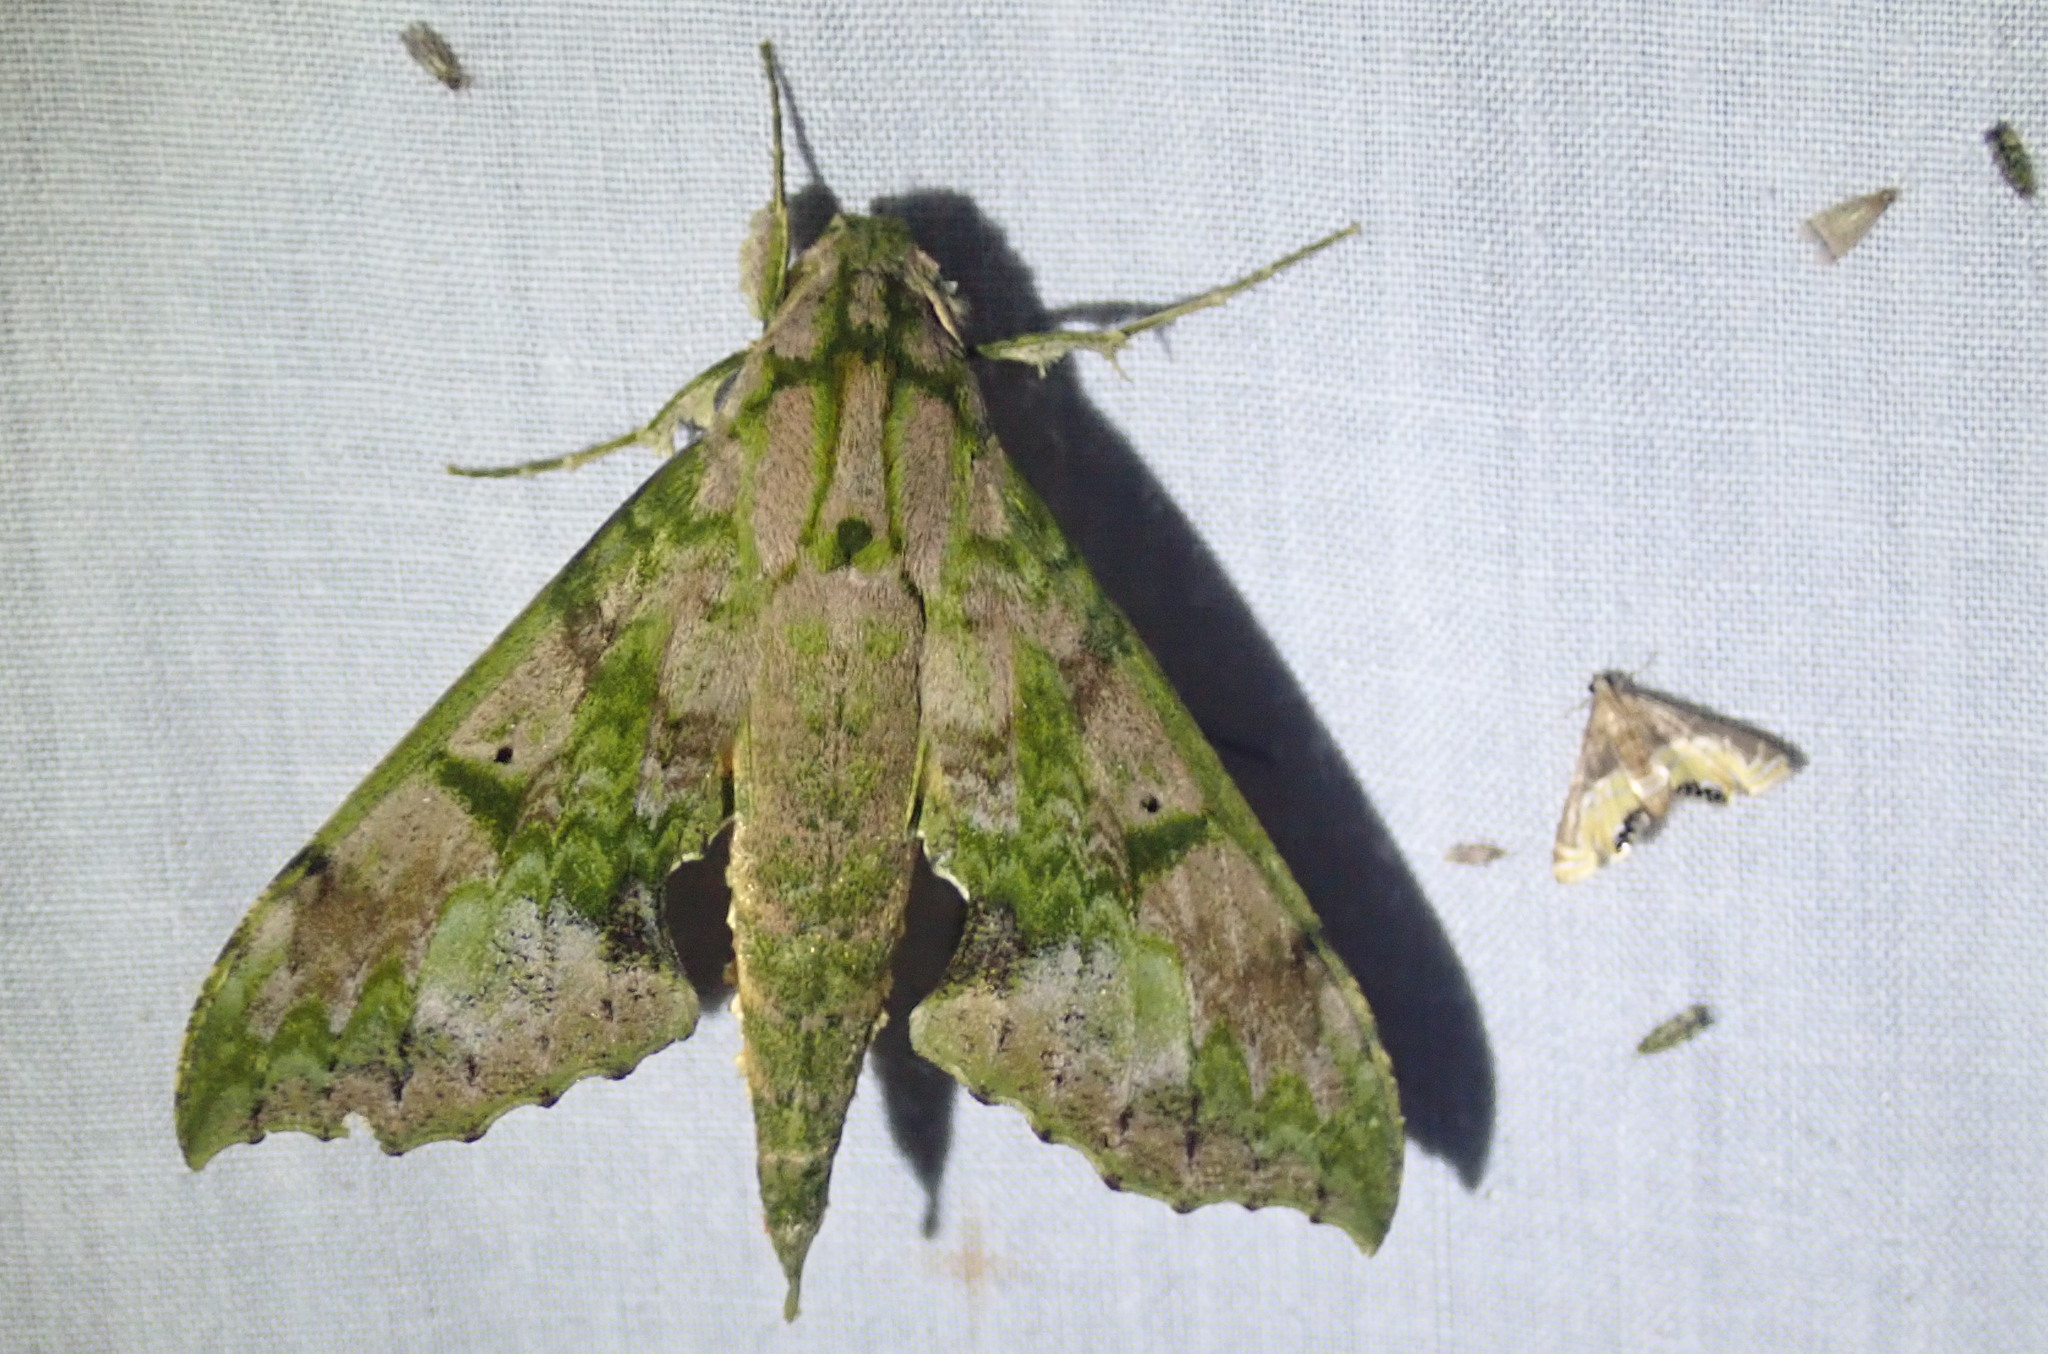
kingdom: Animalia
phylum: Arthropoda
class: Insecta
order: Lepidoptera
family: Sphingidae
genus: Xylophanes
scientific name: Xylophanes zurcheri
